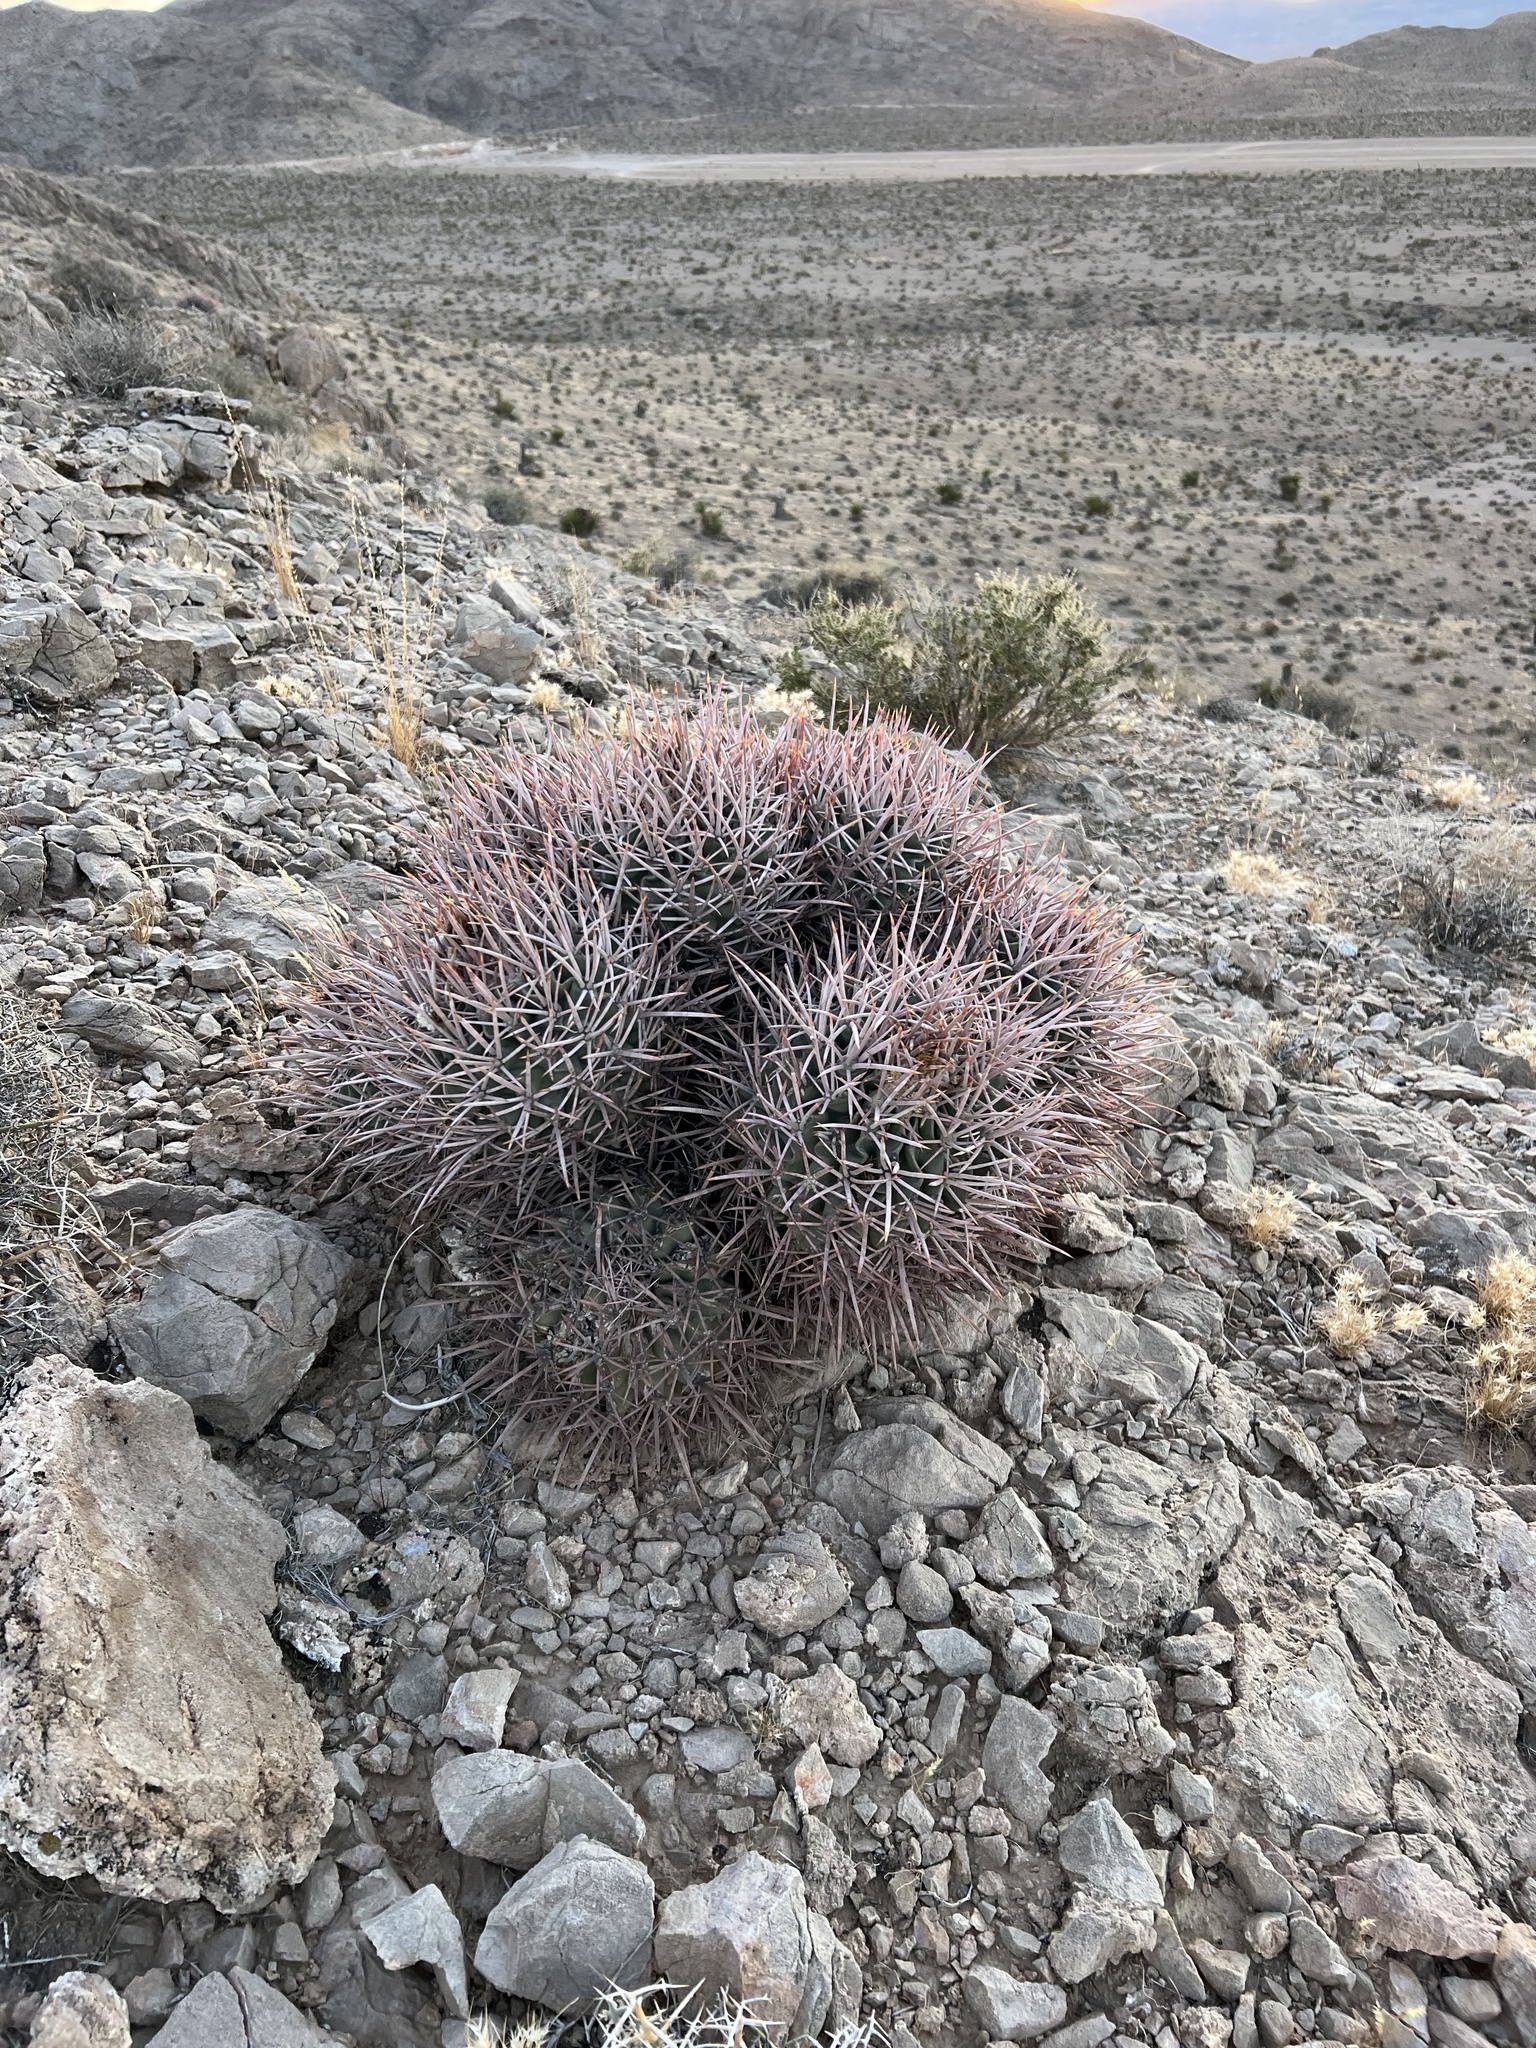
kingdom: Plantae
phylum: Tracheophyta
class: Magnoliopsida
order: Caryophyllales
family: Cactaceae
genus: Echinocactus
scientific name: Echinocactus polycephalus
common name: Cottontop cactus
